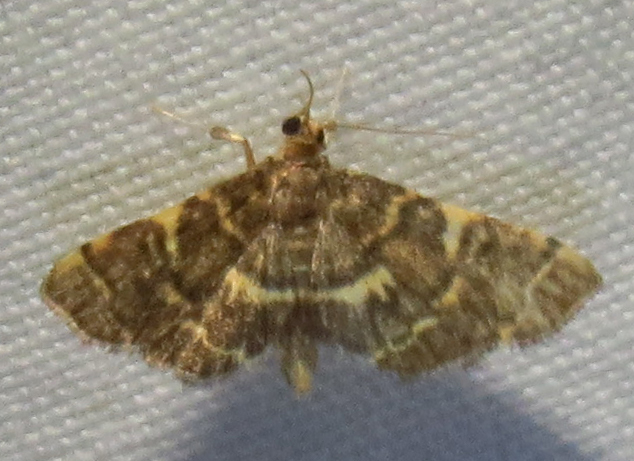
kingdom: Animalia
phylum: Arthropoda
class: Insecta
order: Lepidoptera
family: Crambidae
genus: Anageshna
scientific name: Anageshna primordialis
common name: Yellow-spotted webworm moth
